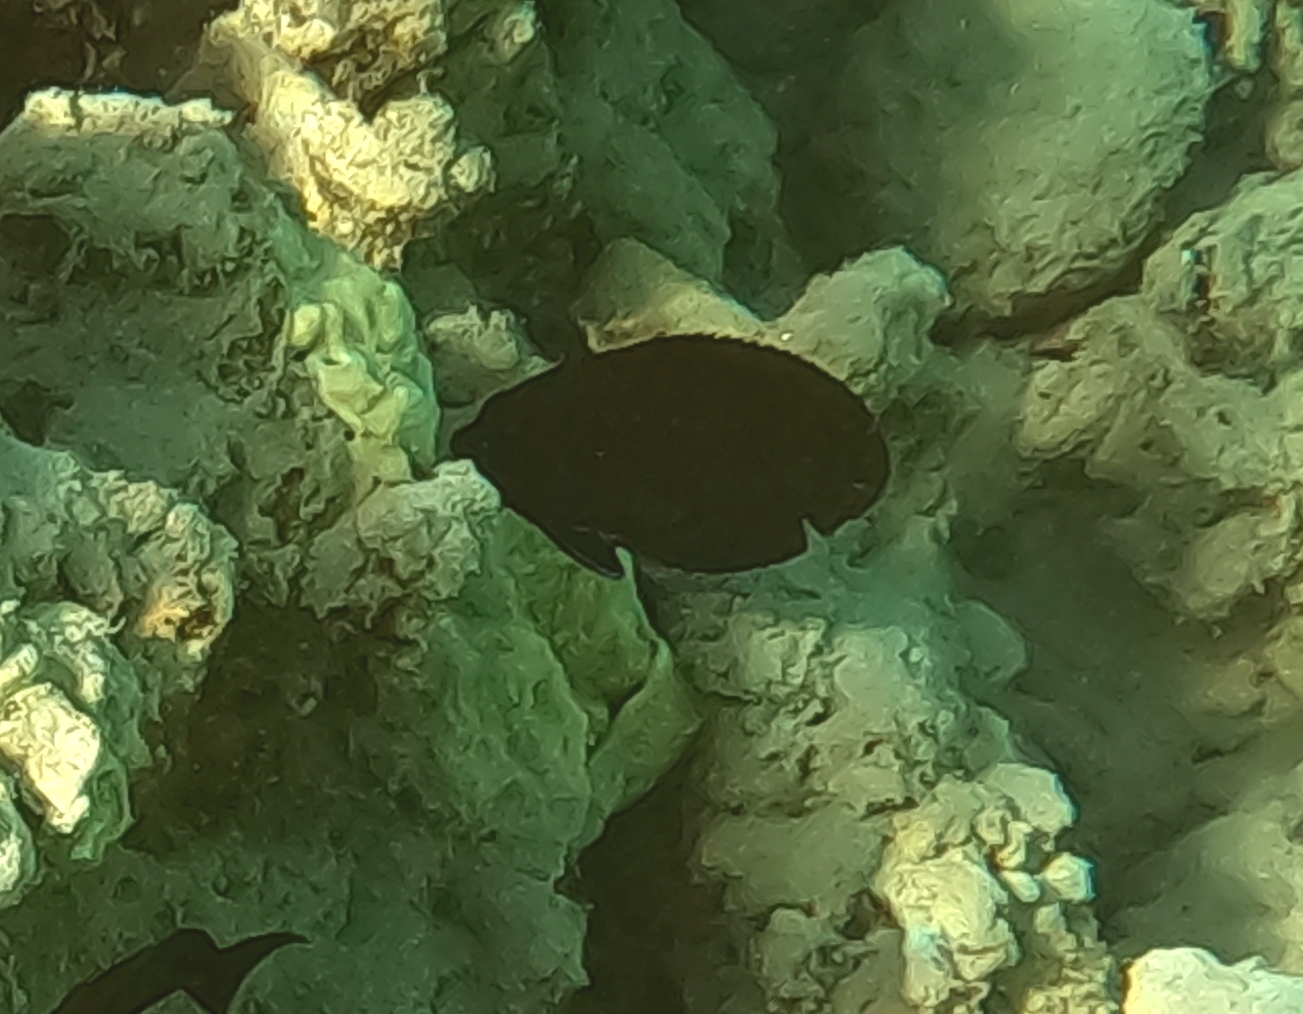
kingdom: Animalia
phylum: Chordata
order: Perciformes
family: Pomacanthidae
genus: Centropyge
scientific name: Centropyge multispinis
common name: Many-spined angelfish
